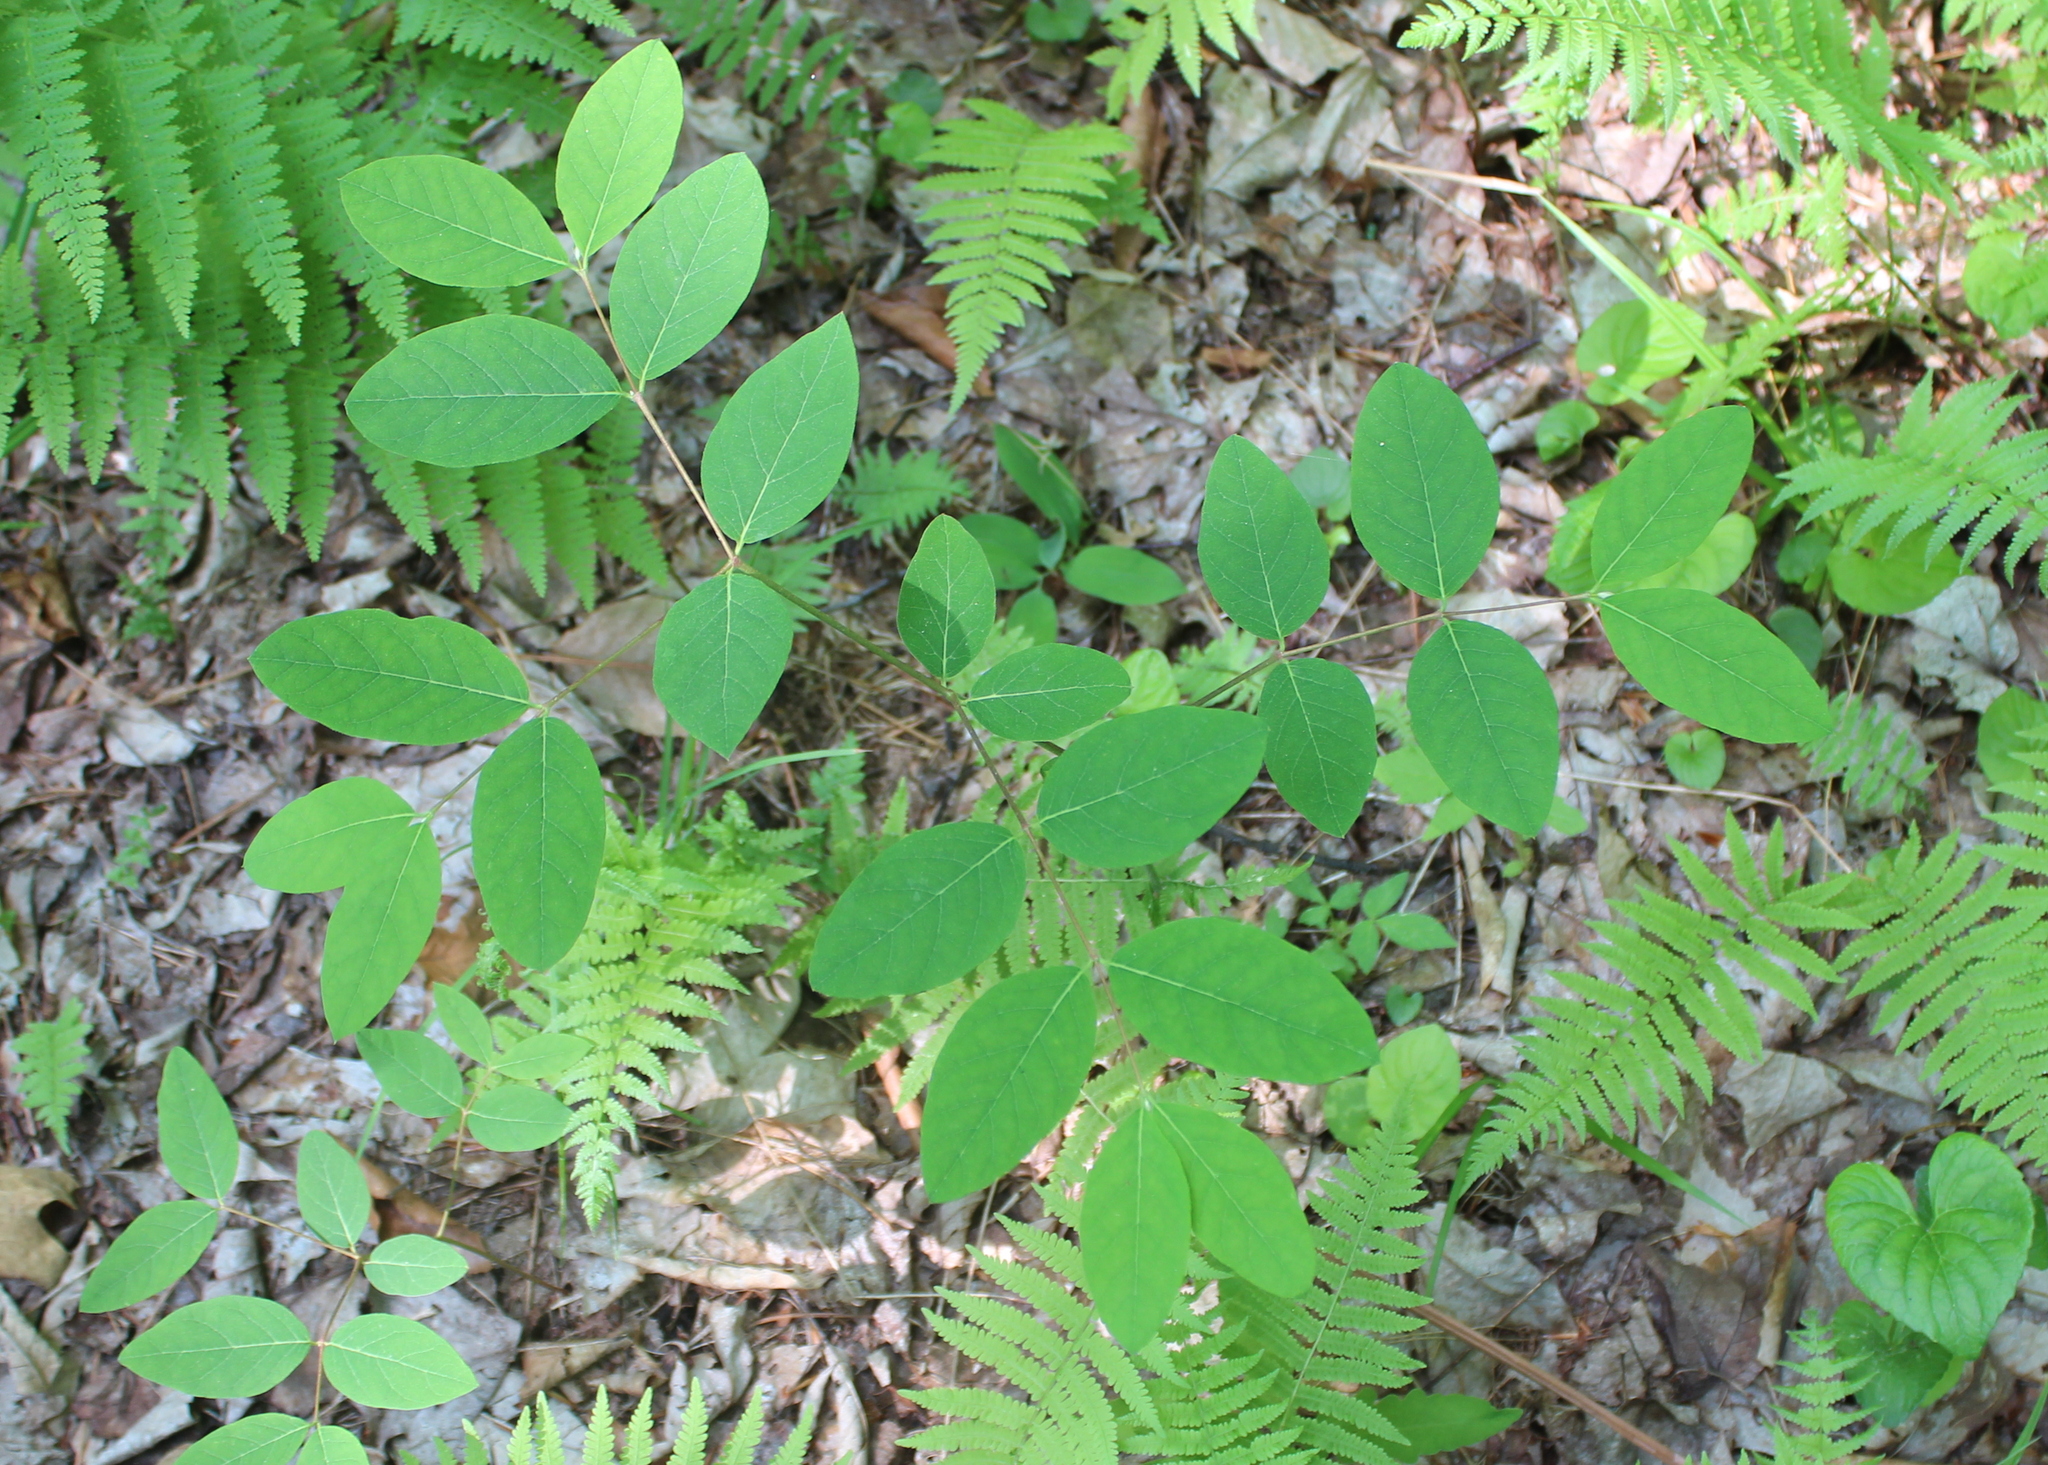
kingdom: Plantae
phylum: Tracheophyta
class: Magnoliopsida
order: Gentianales
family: Apocynaceae
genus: Apocynum
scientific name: Apocynum androsaemifolium
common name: Spreading dogbane
